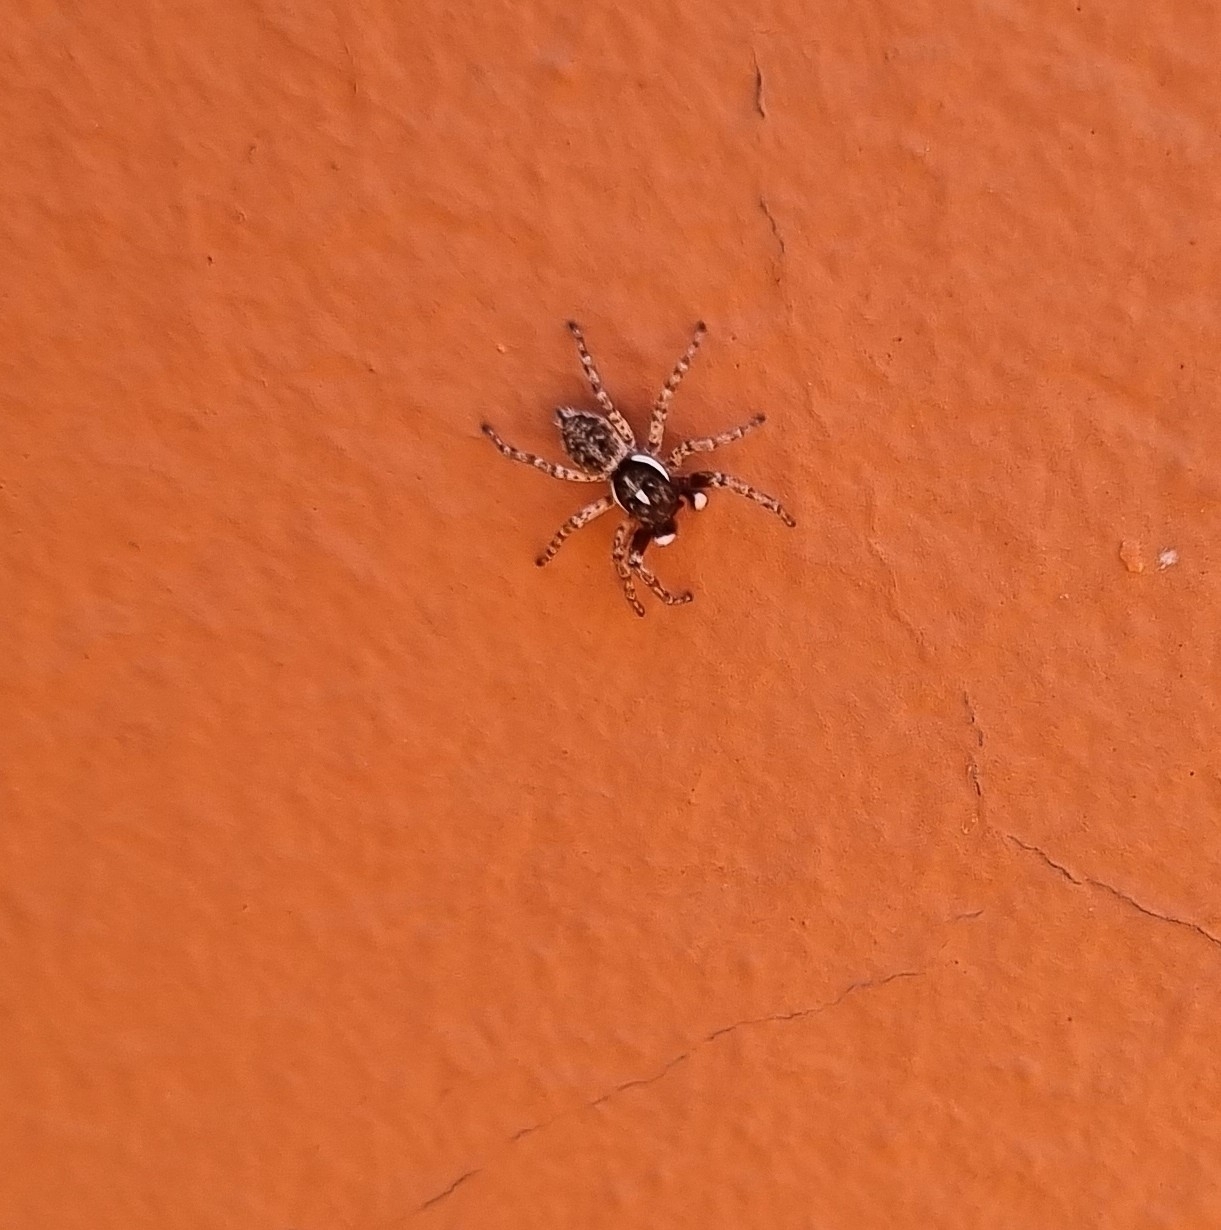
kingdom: Animalia
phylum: Arthropoda
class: Arachnida
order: Araneae
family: Salticidae
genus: Menemerus
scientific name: Menemerus semilimbatus
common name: Jumping spider
